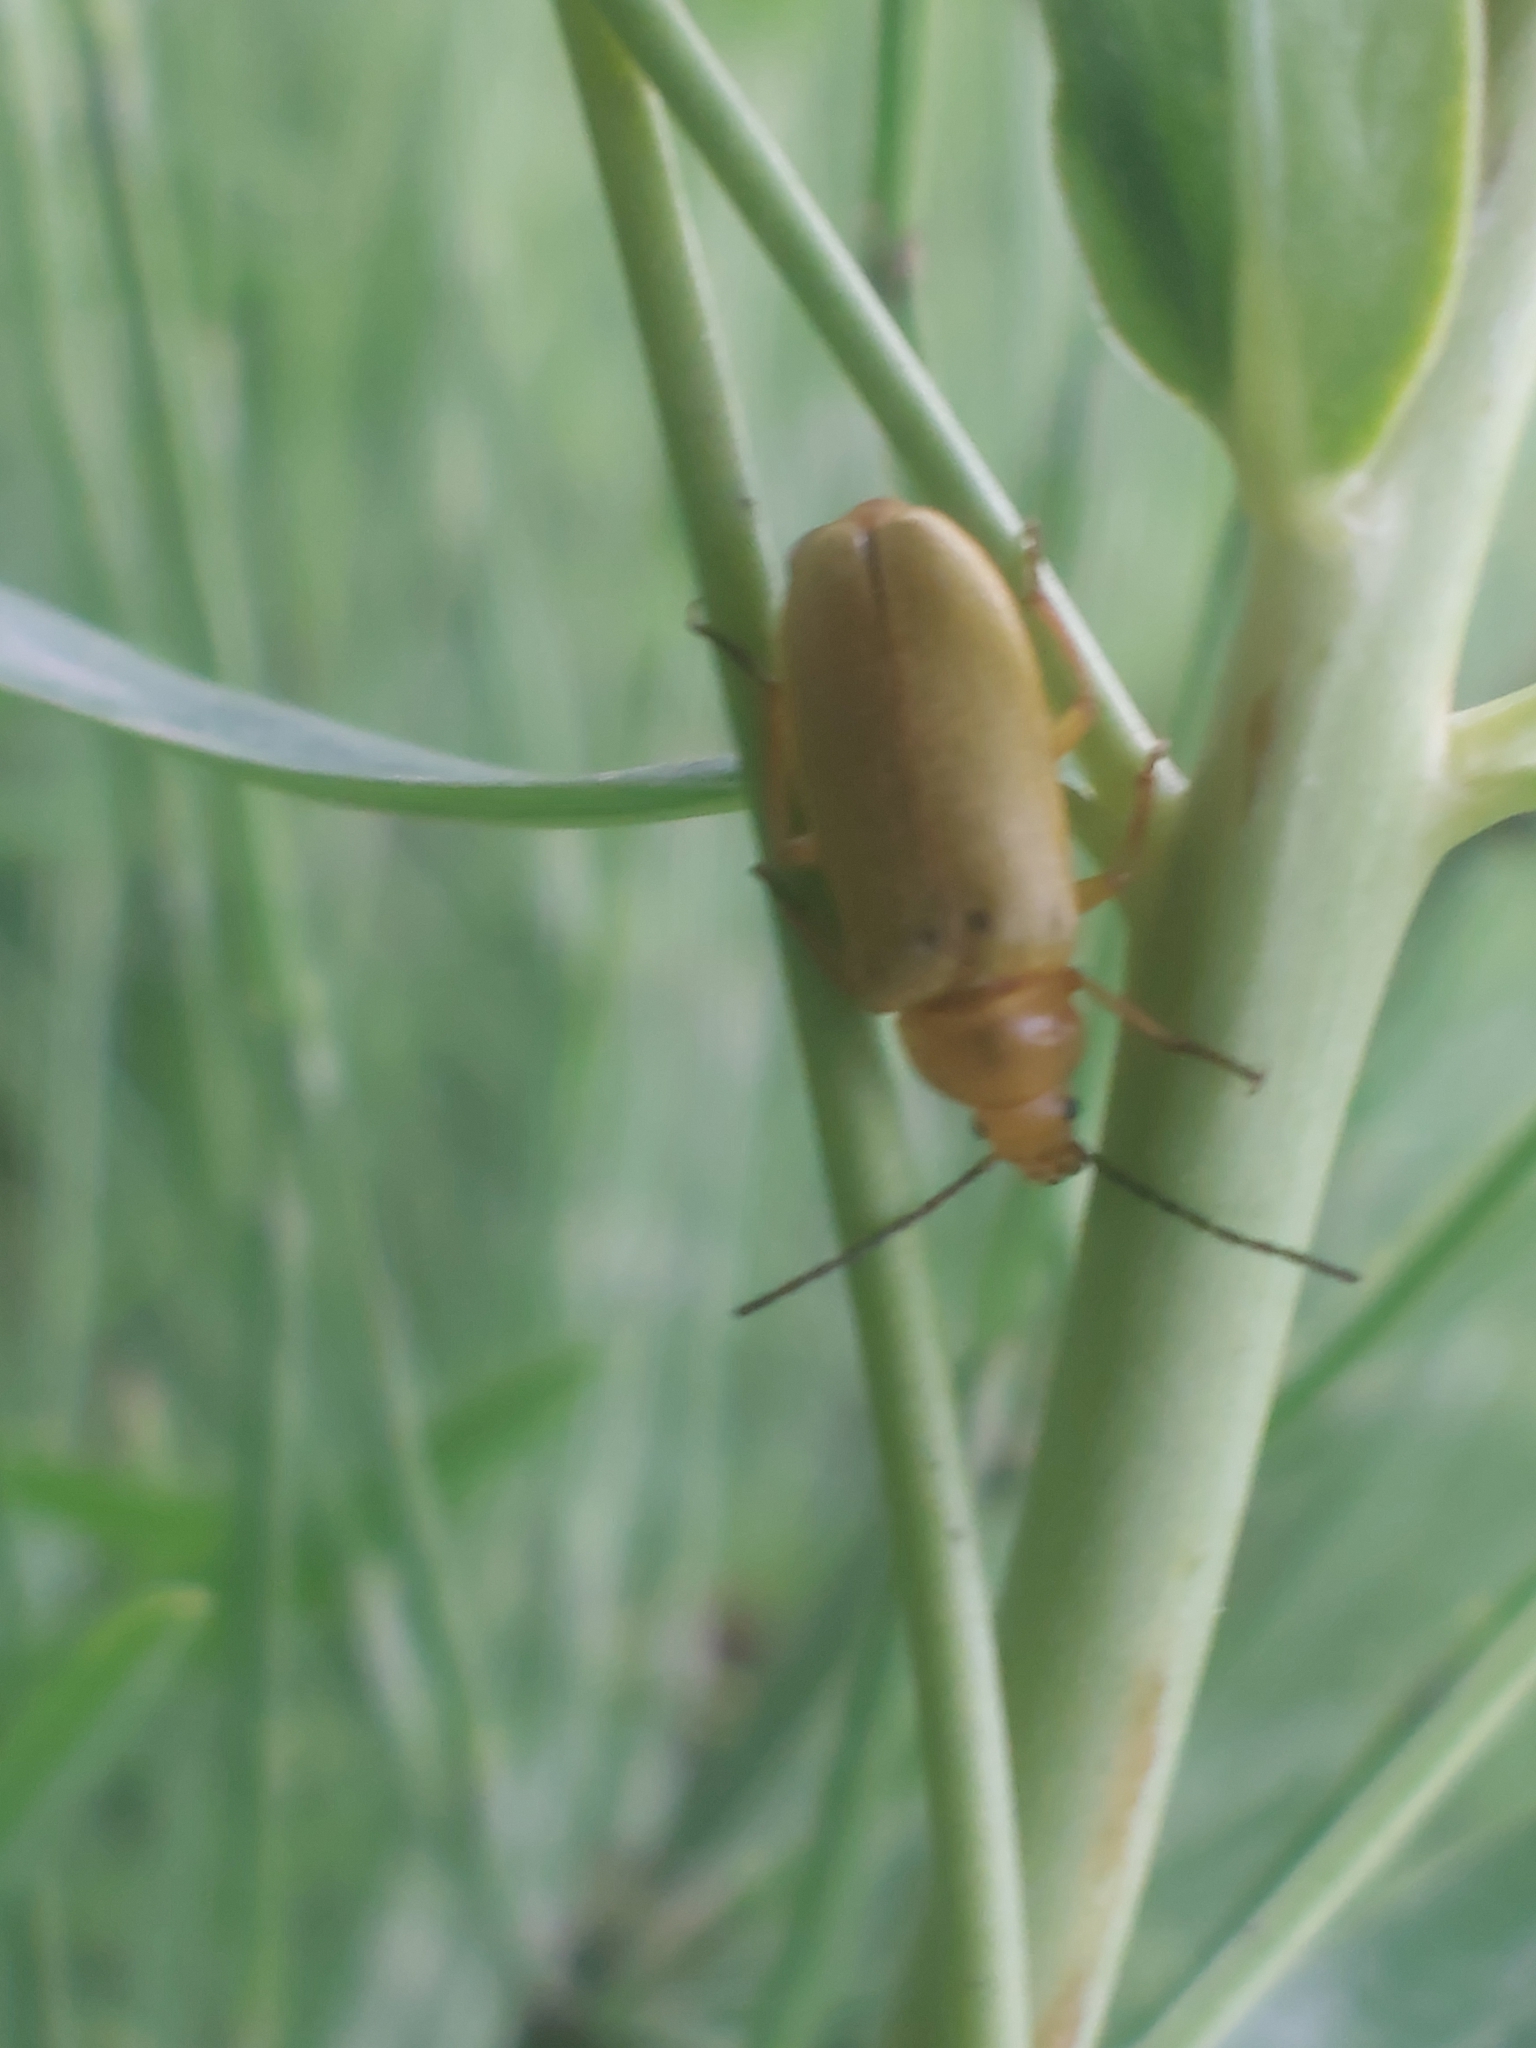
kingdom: Animalia
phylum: Arthropoda
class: Insecta
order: Coleoptera
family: Tenebrionidae
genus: Cteniopus
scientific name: Cteniopus sulphureus
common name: Sulphur beetle
